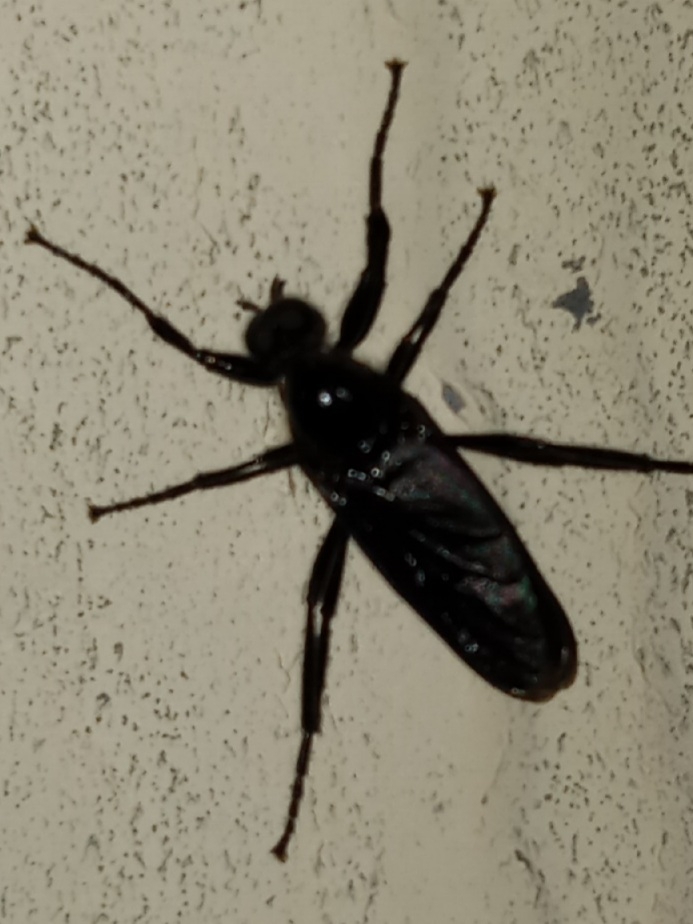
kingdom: Animalia
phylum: Arthropoda
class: Insecta
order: Diptera
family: Bibionidae
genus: Bibio
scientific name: Bibio superfluus
